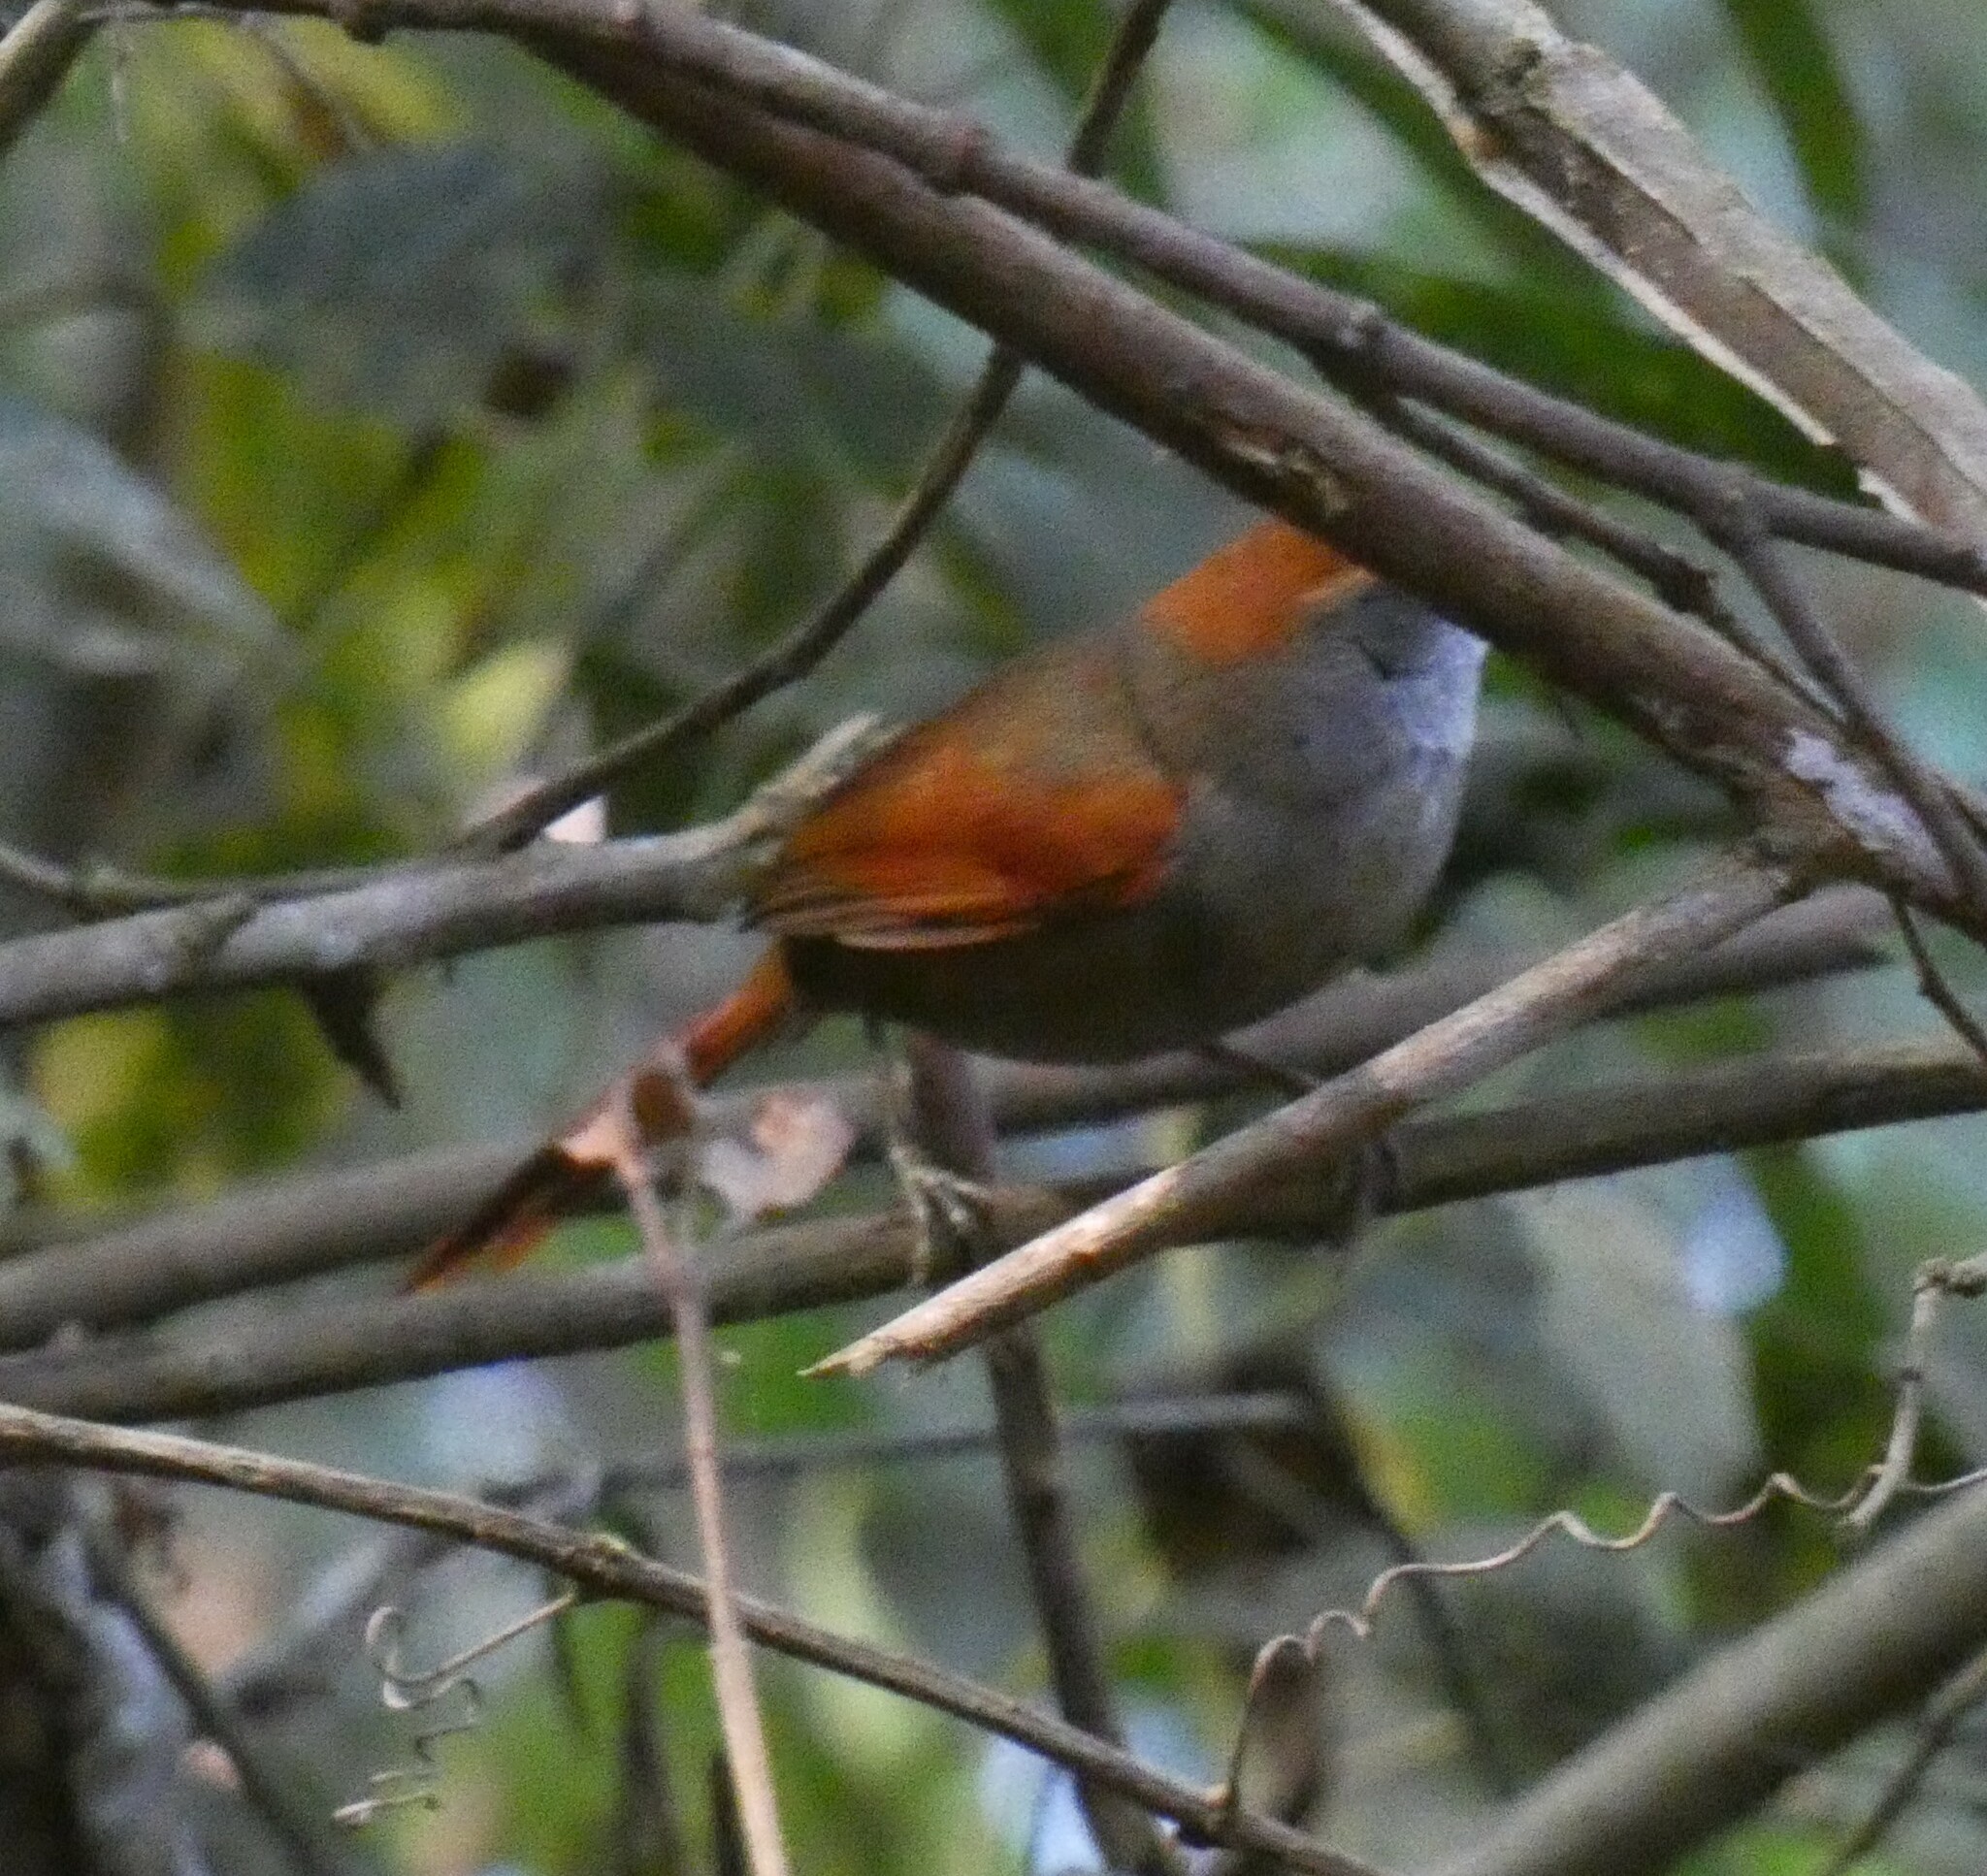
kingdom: Animalia
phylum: Chordata
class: Aves
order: Passeriformes
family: Furnariidae
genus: Synallaxis
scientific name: Synallaxis ruficapilla
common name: Rufous-capped spinetail
